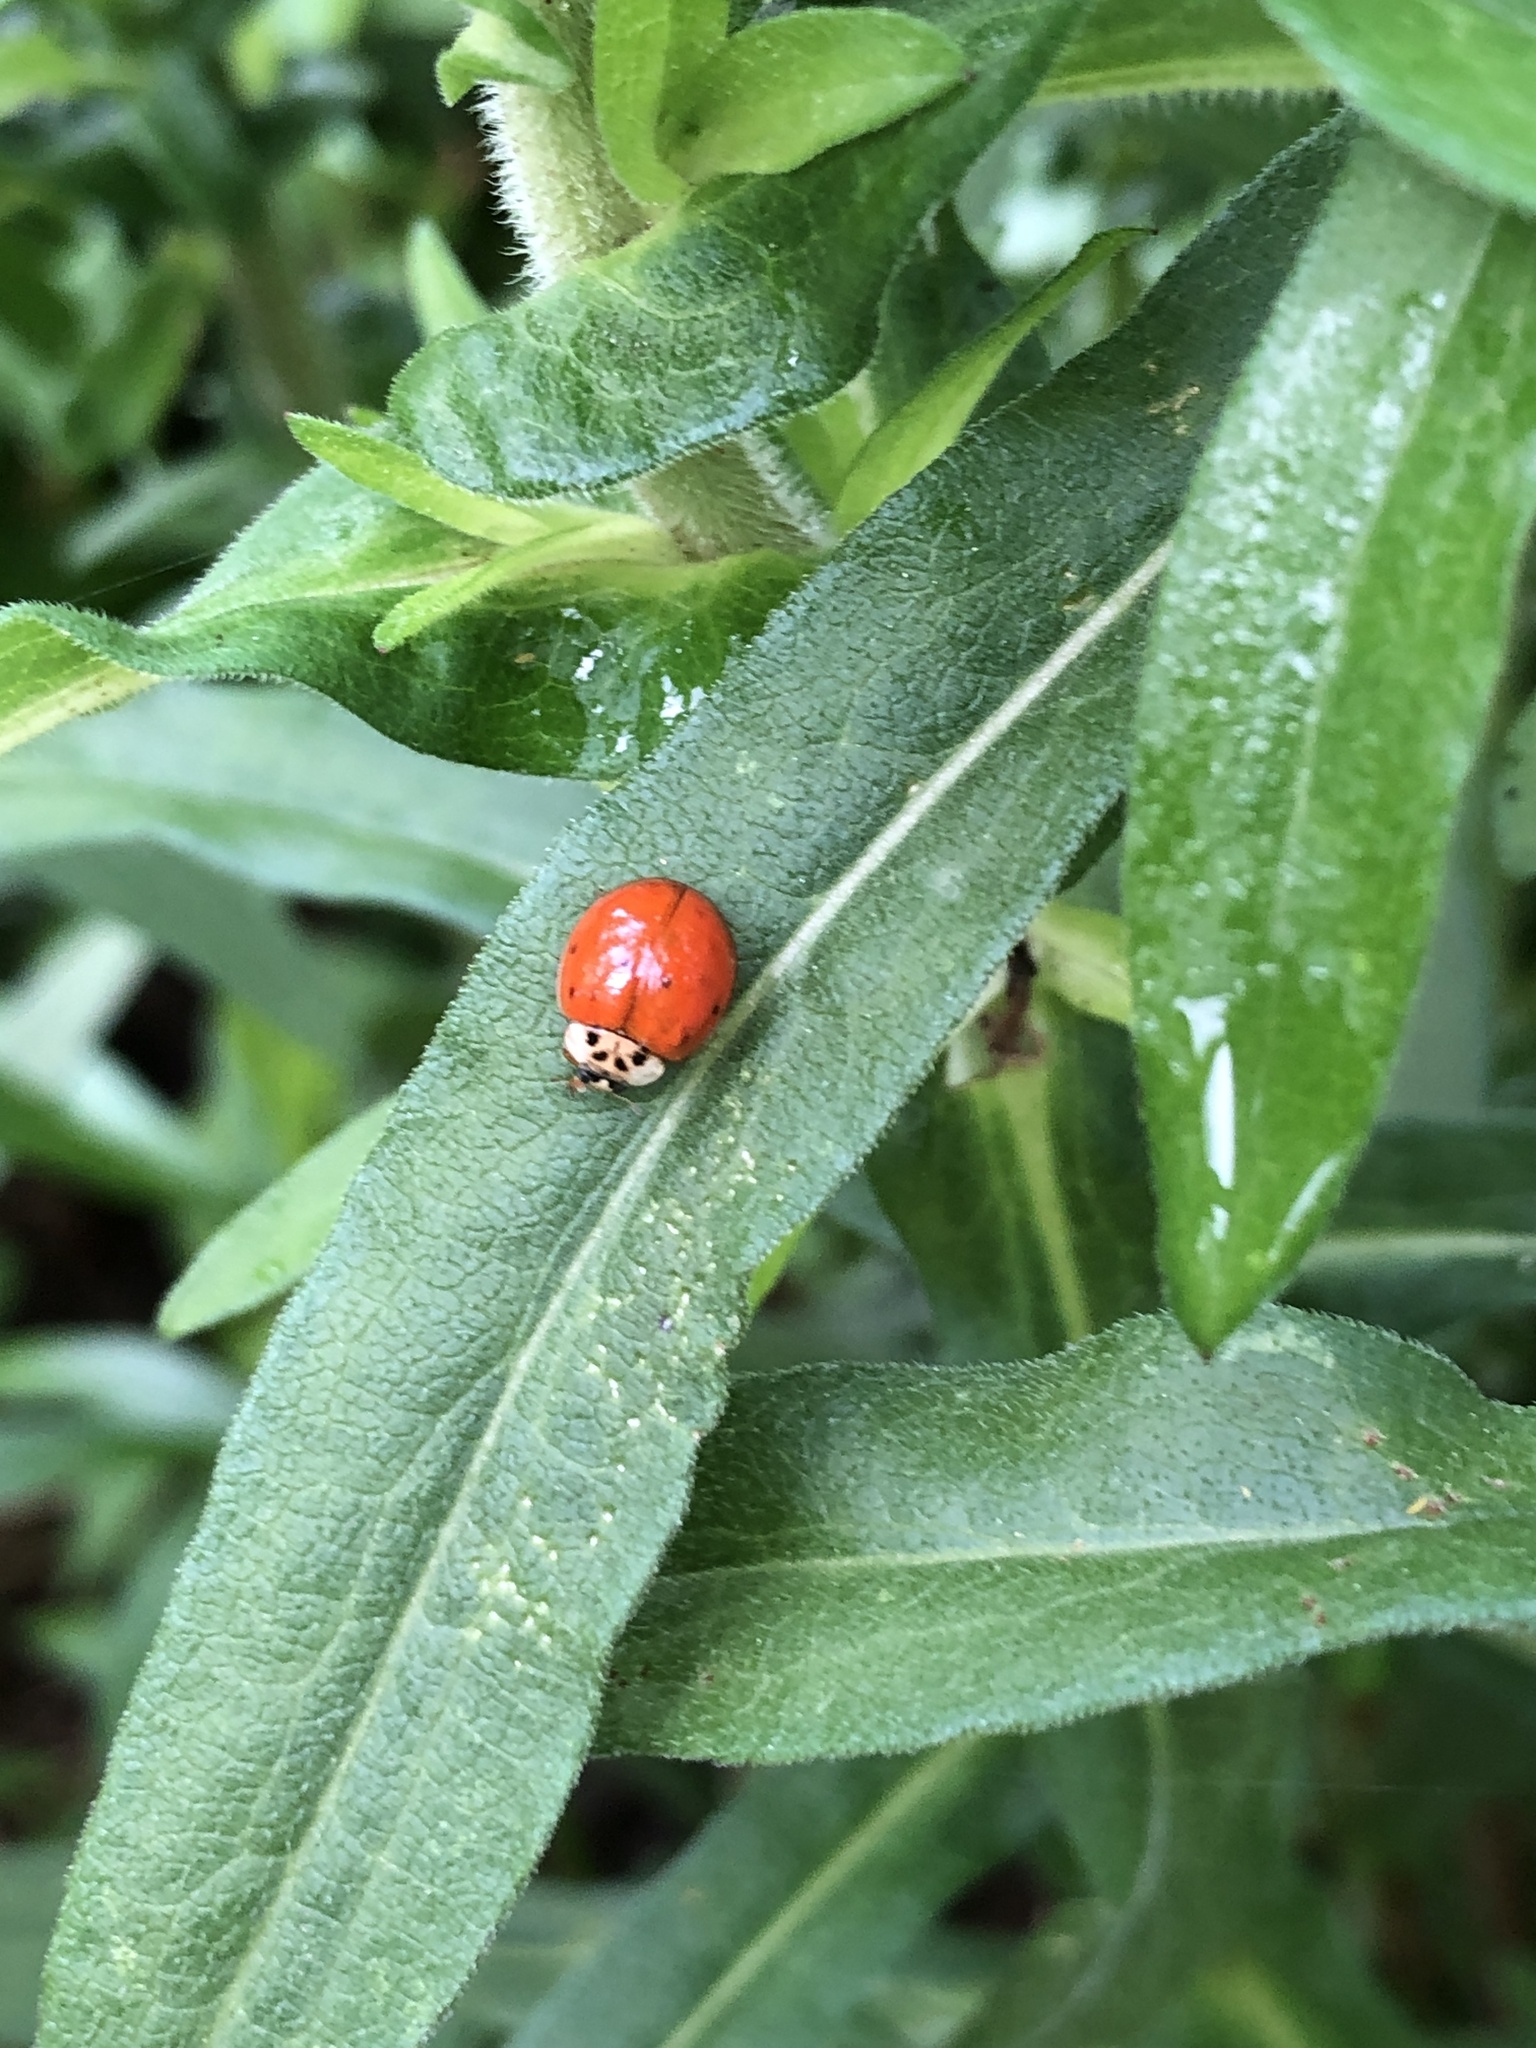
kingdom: Animalia
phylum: Arthropoda
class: Insecta
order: Coleoptera
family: Coccinellidae
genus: Harmonia
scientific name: Harmonia axyridis
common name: Harlequin ladybird
